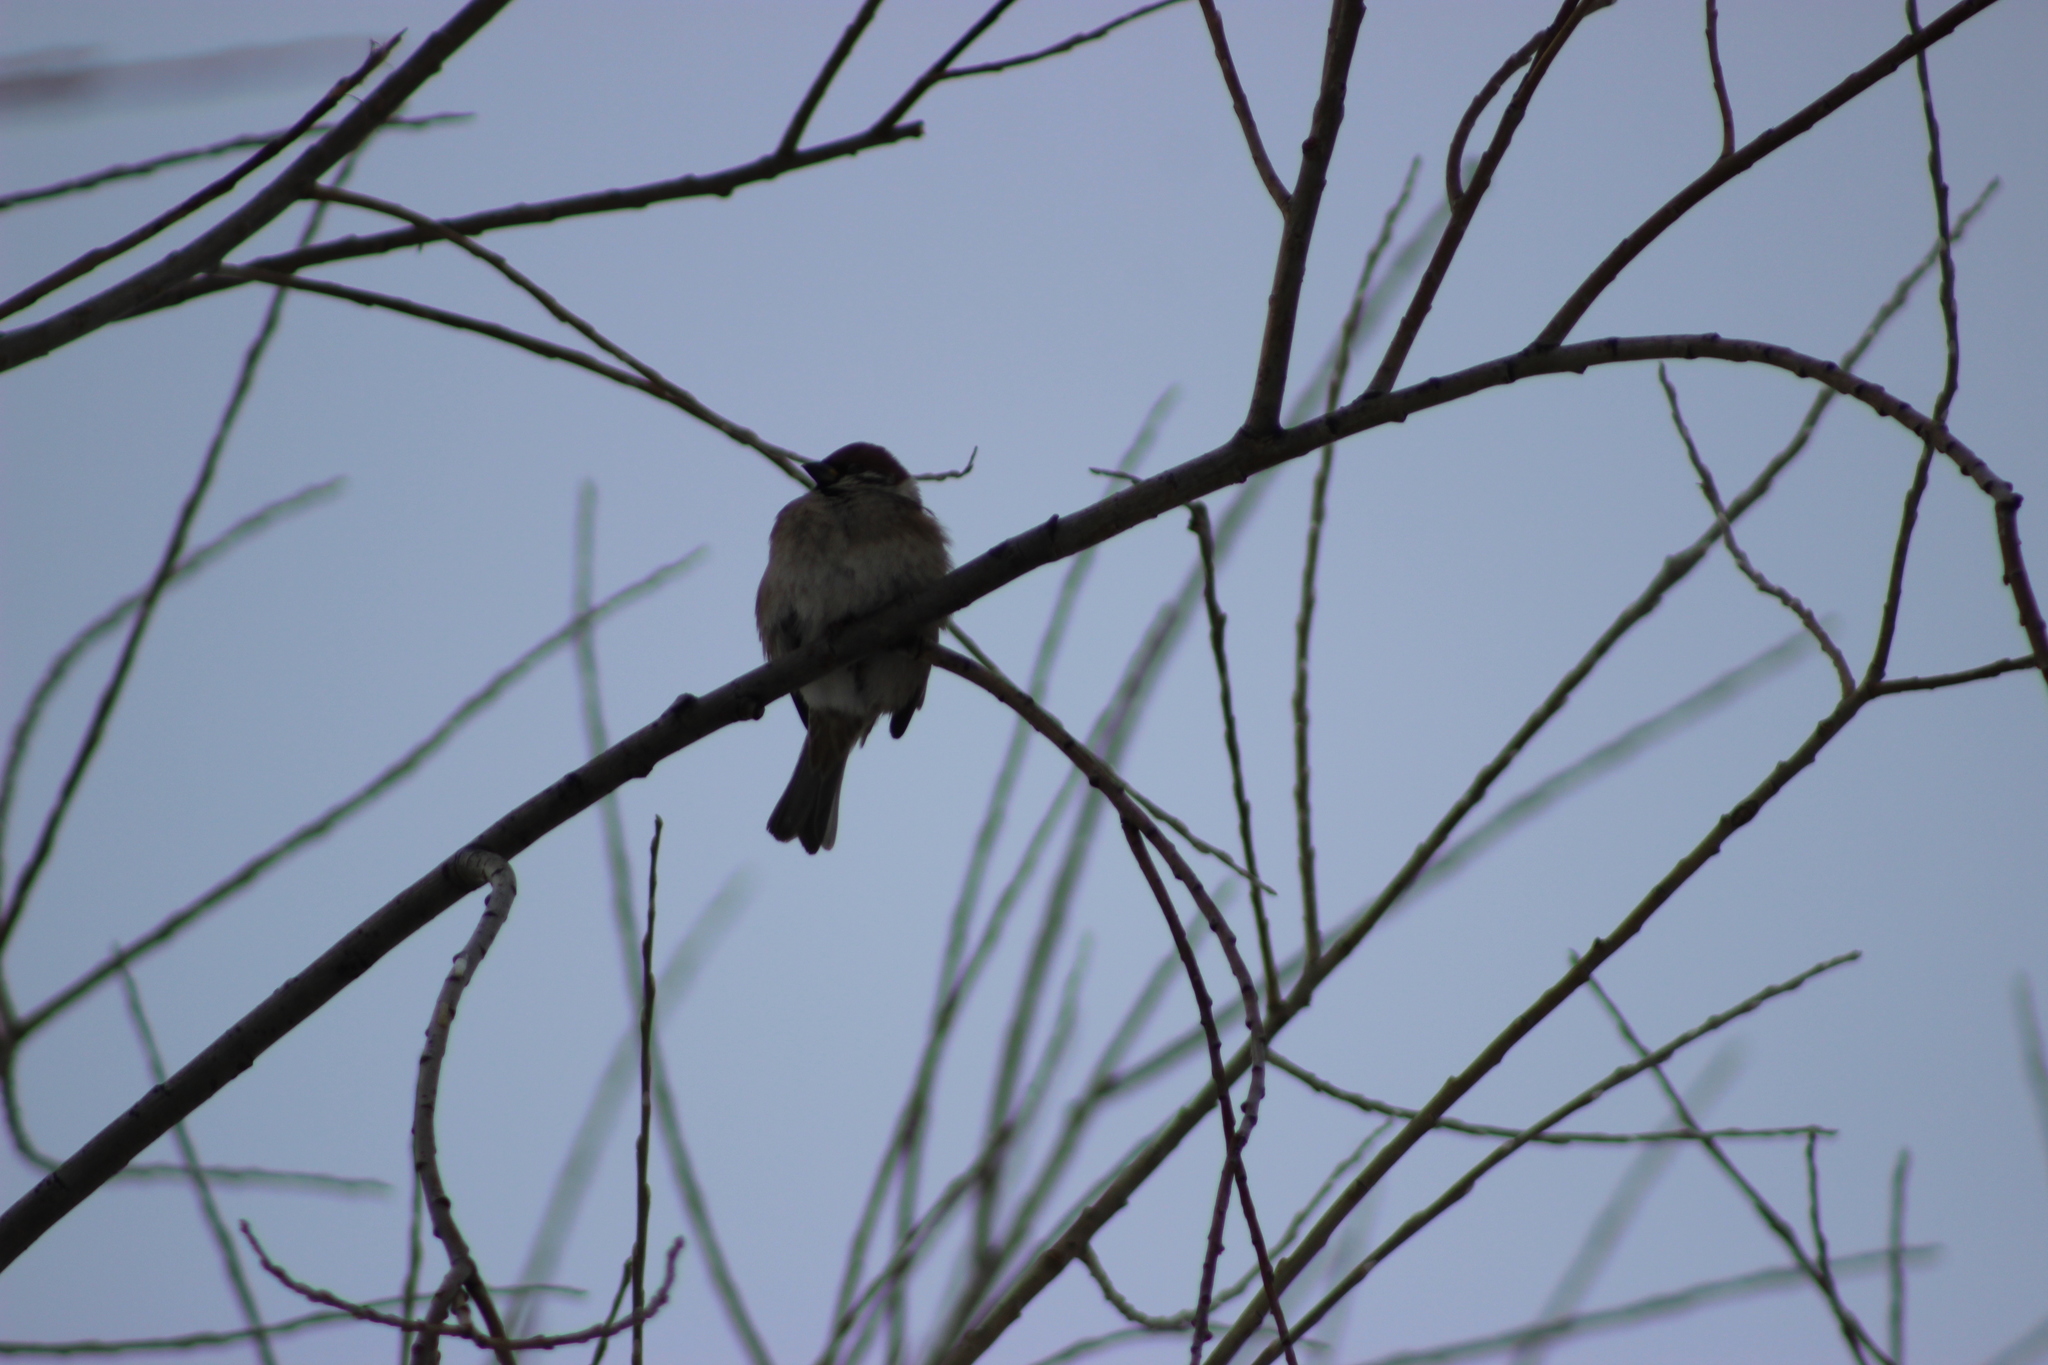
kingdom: Animalia
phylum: Chordata
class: Aves
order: Passeriformes
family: Passeridae
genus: Passer
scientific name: Passer montanus
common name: Eurasian tree sparrow
